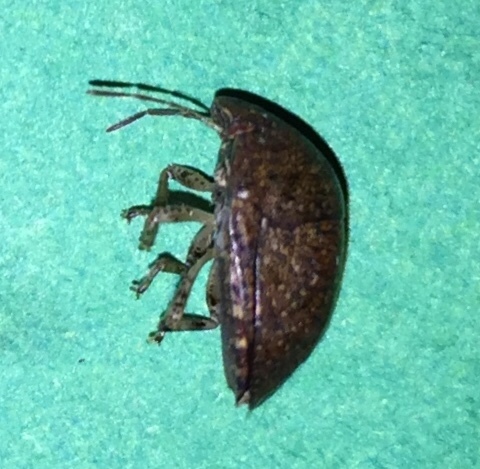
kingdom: Animalia
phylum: Arthropoda
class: Insecta
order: Hemiptera
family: Scutelleridae
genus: Diolcus
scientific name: Diolcus chrysorrhoeus
